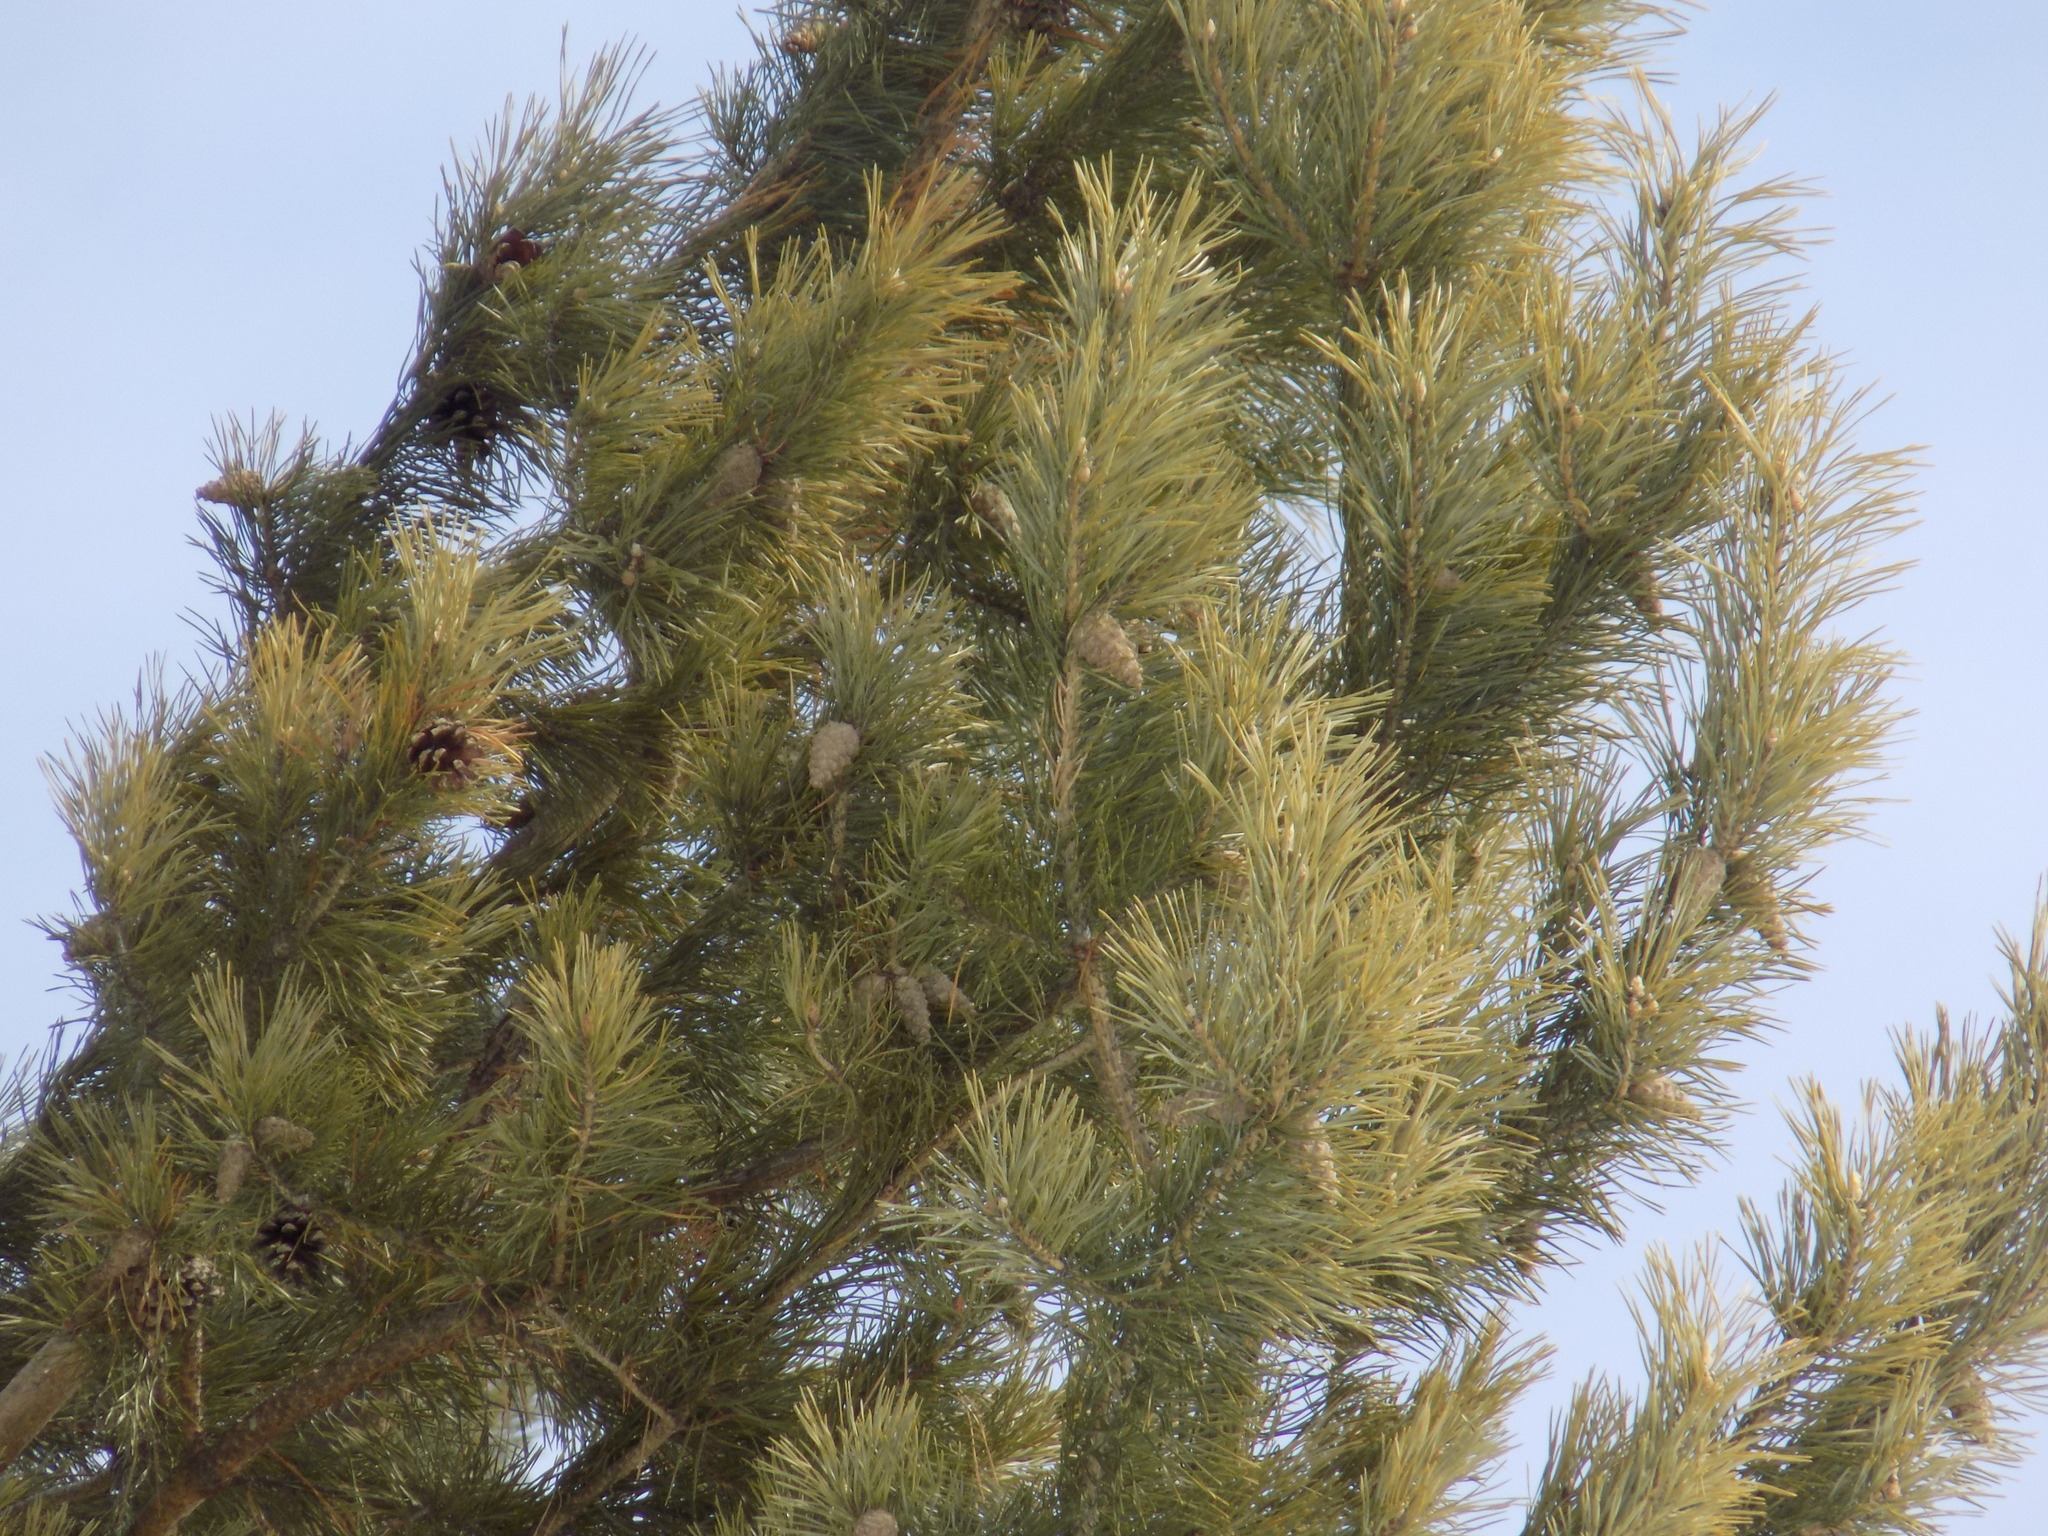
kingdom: Plantae
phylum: Tracheophyta
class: Pinopsida
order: Pinales
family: Pinaceae
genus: Pinus
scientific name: Pinus sylvestris
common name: Scots pine
